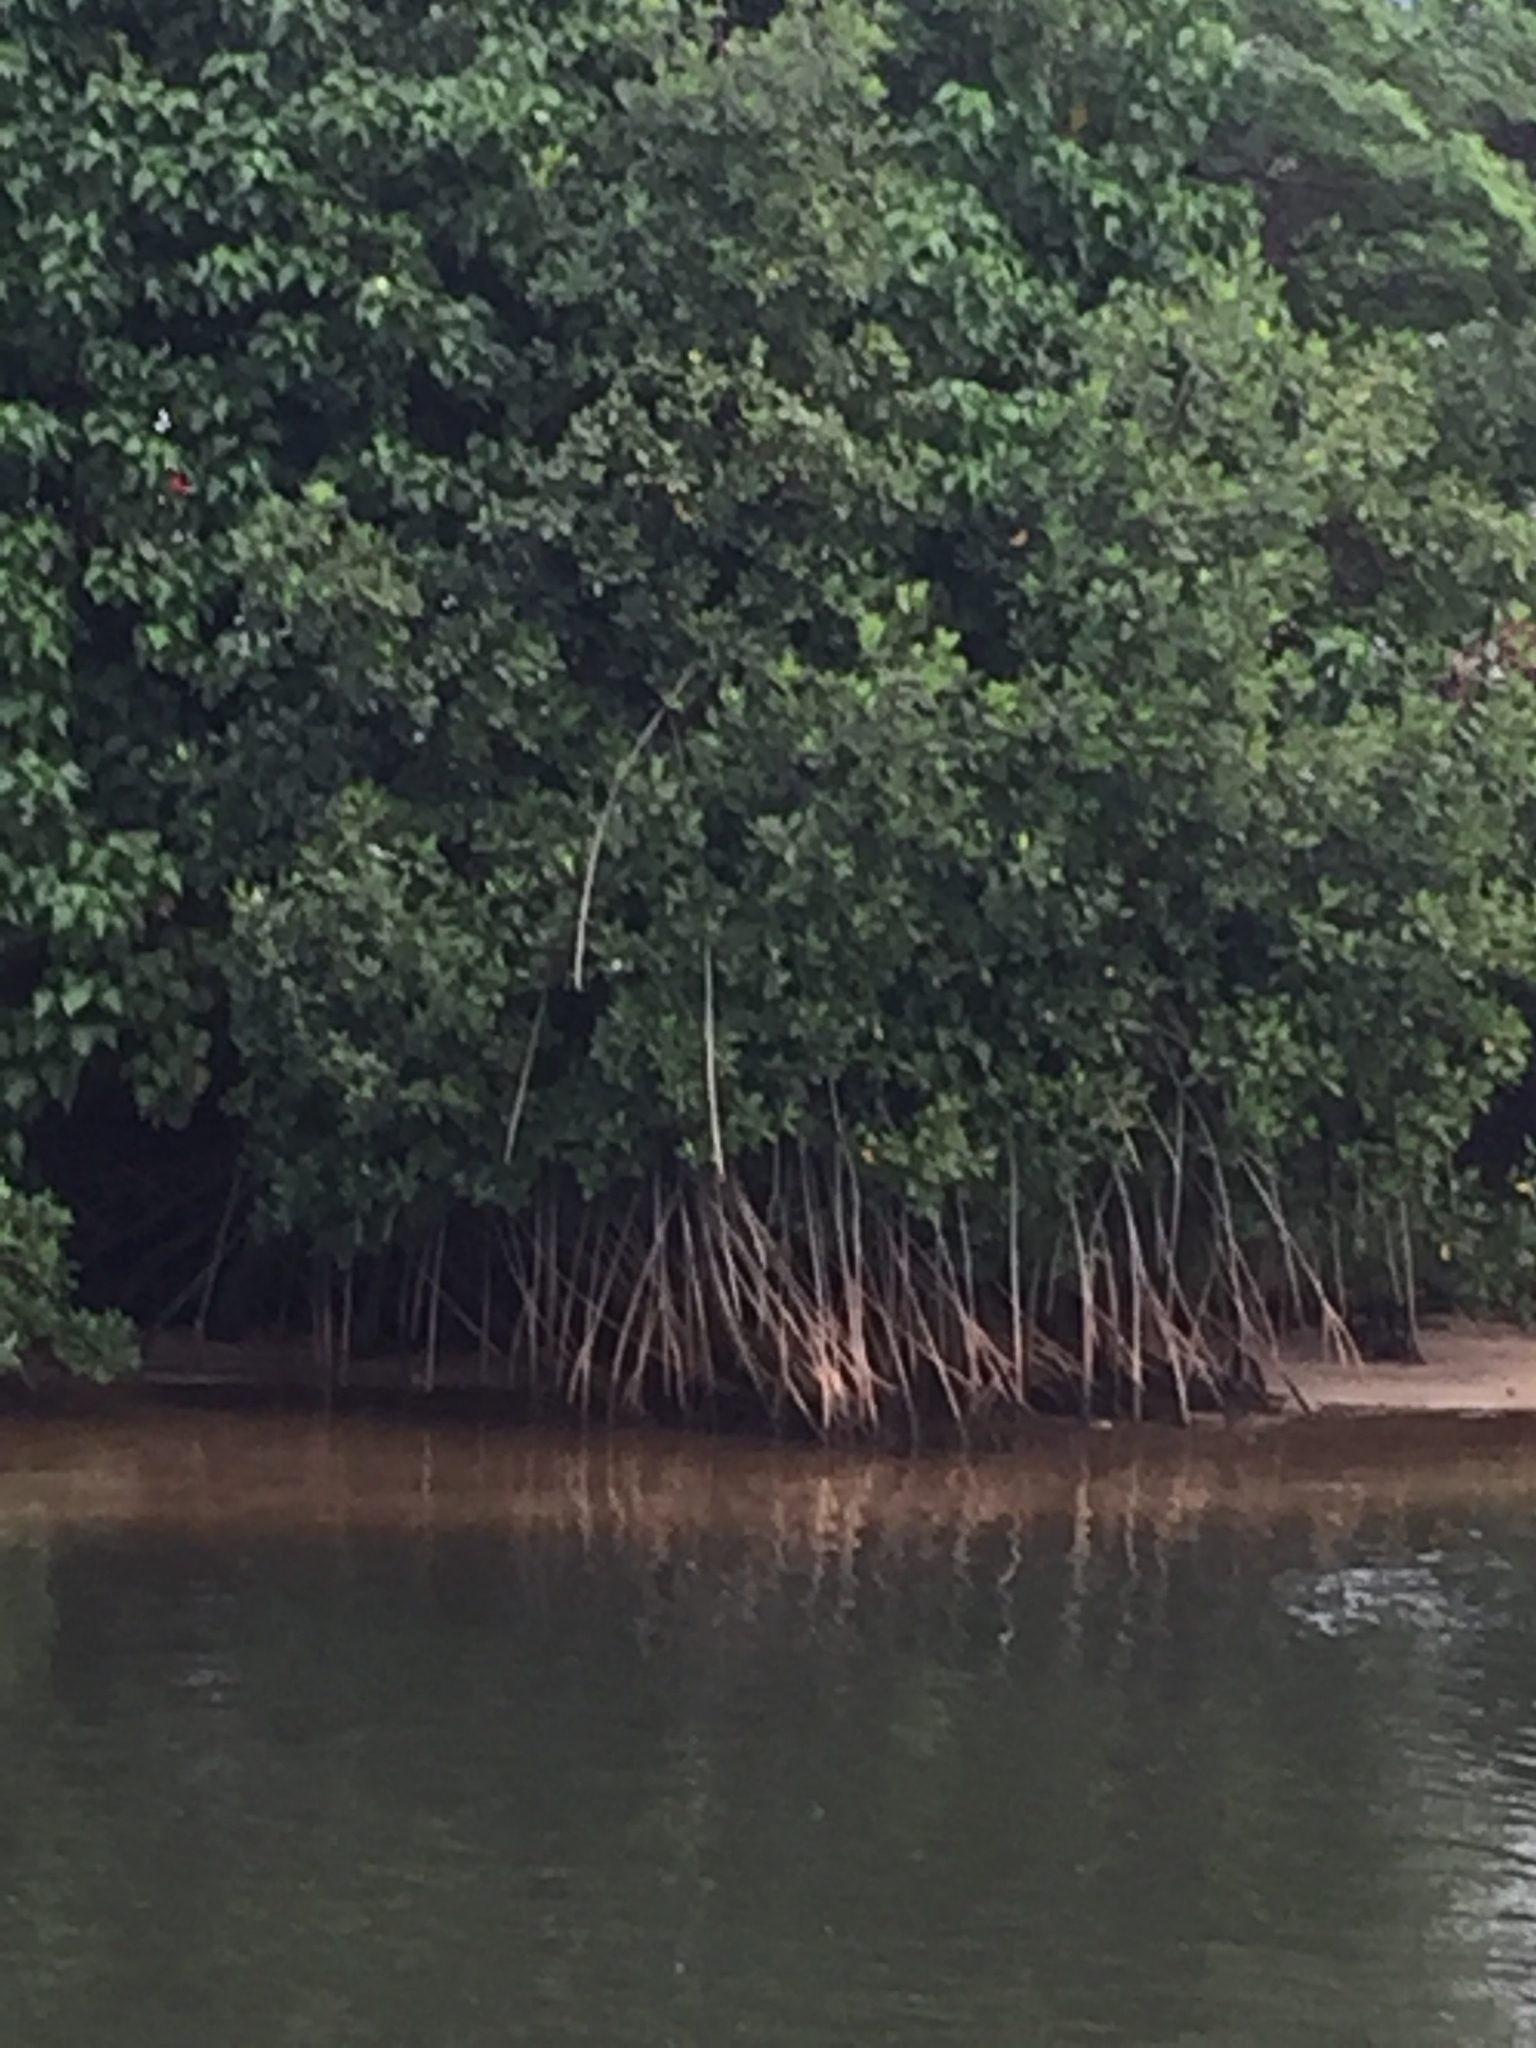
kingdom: Plantae
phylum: Tracheophyta
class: Magnoliopsida
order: Malpighiales
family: Rhizophoraceae
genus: Rhizophora
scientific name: Rhizophora mangle
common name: Red mangrove
